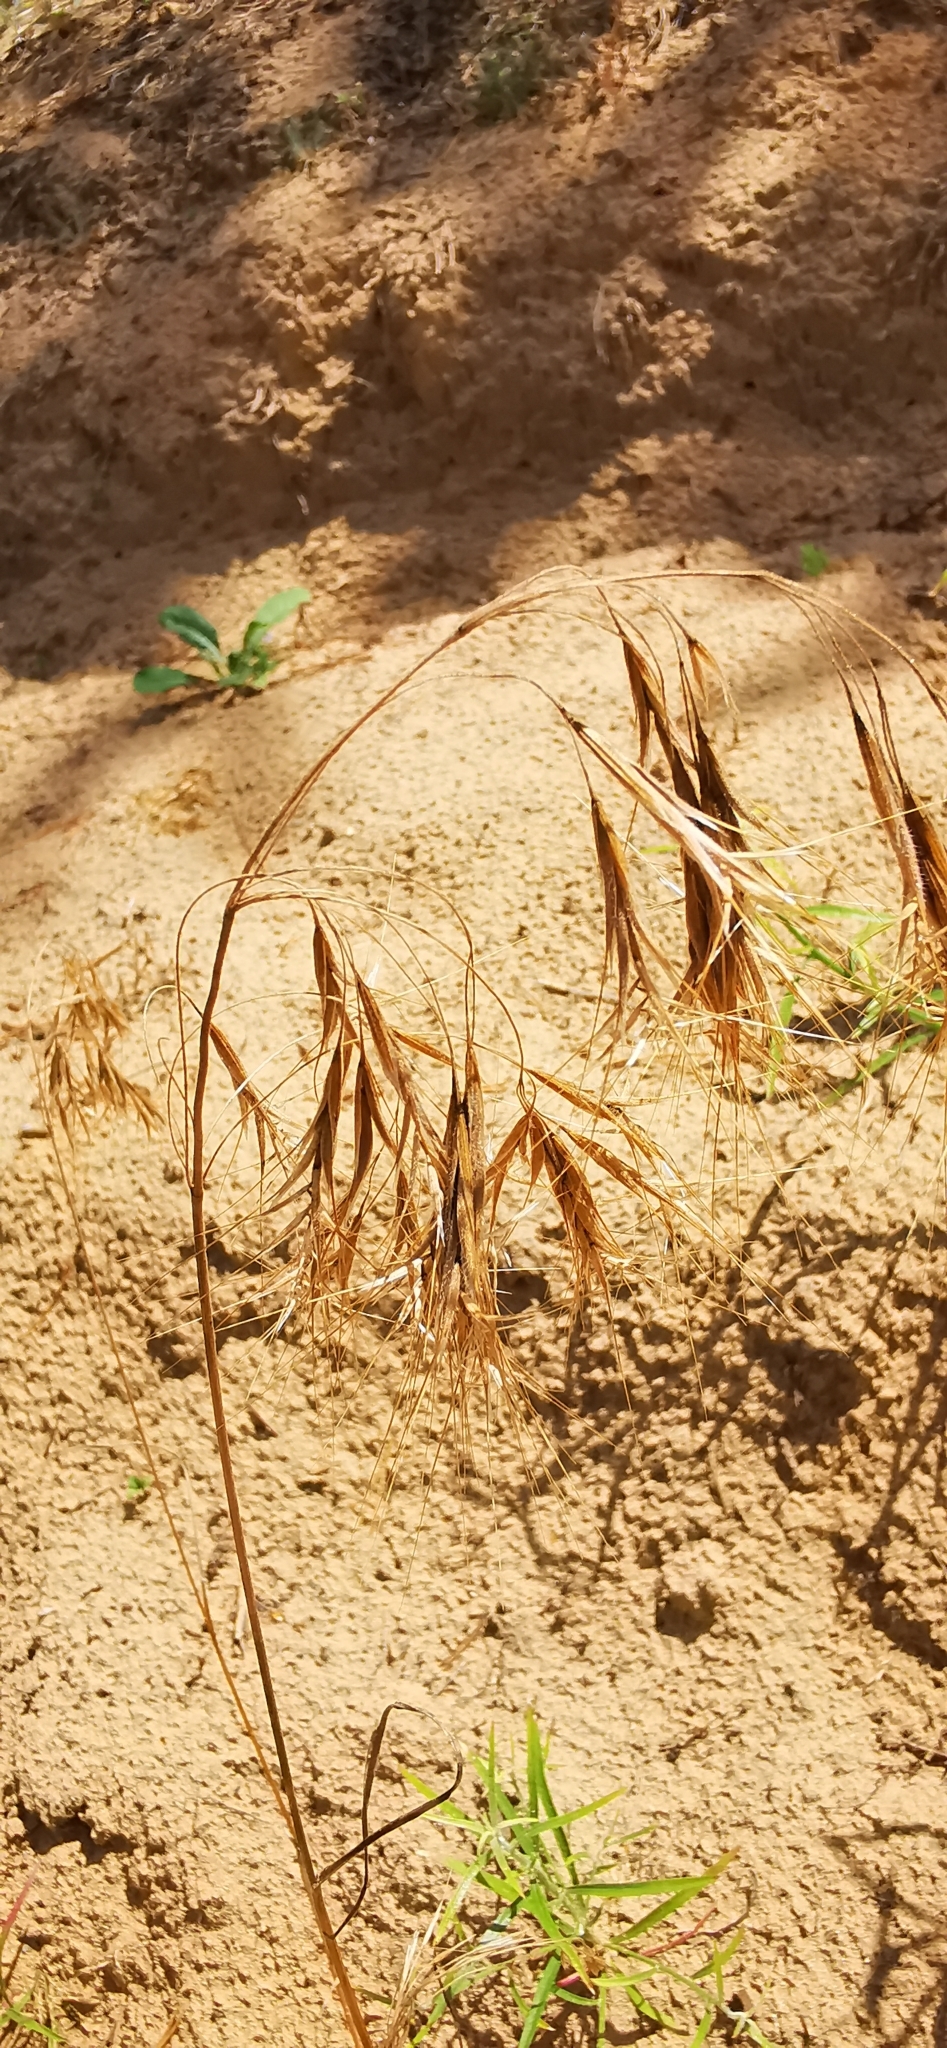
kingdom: Plantae
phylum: Tracheophyta
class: Liliopsida
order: Poales
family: Poaceae
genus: Bromus
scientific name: Bromus tectorum
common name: Cheatgrass
